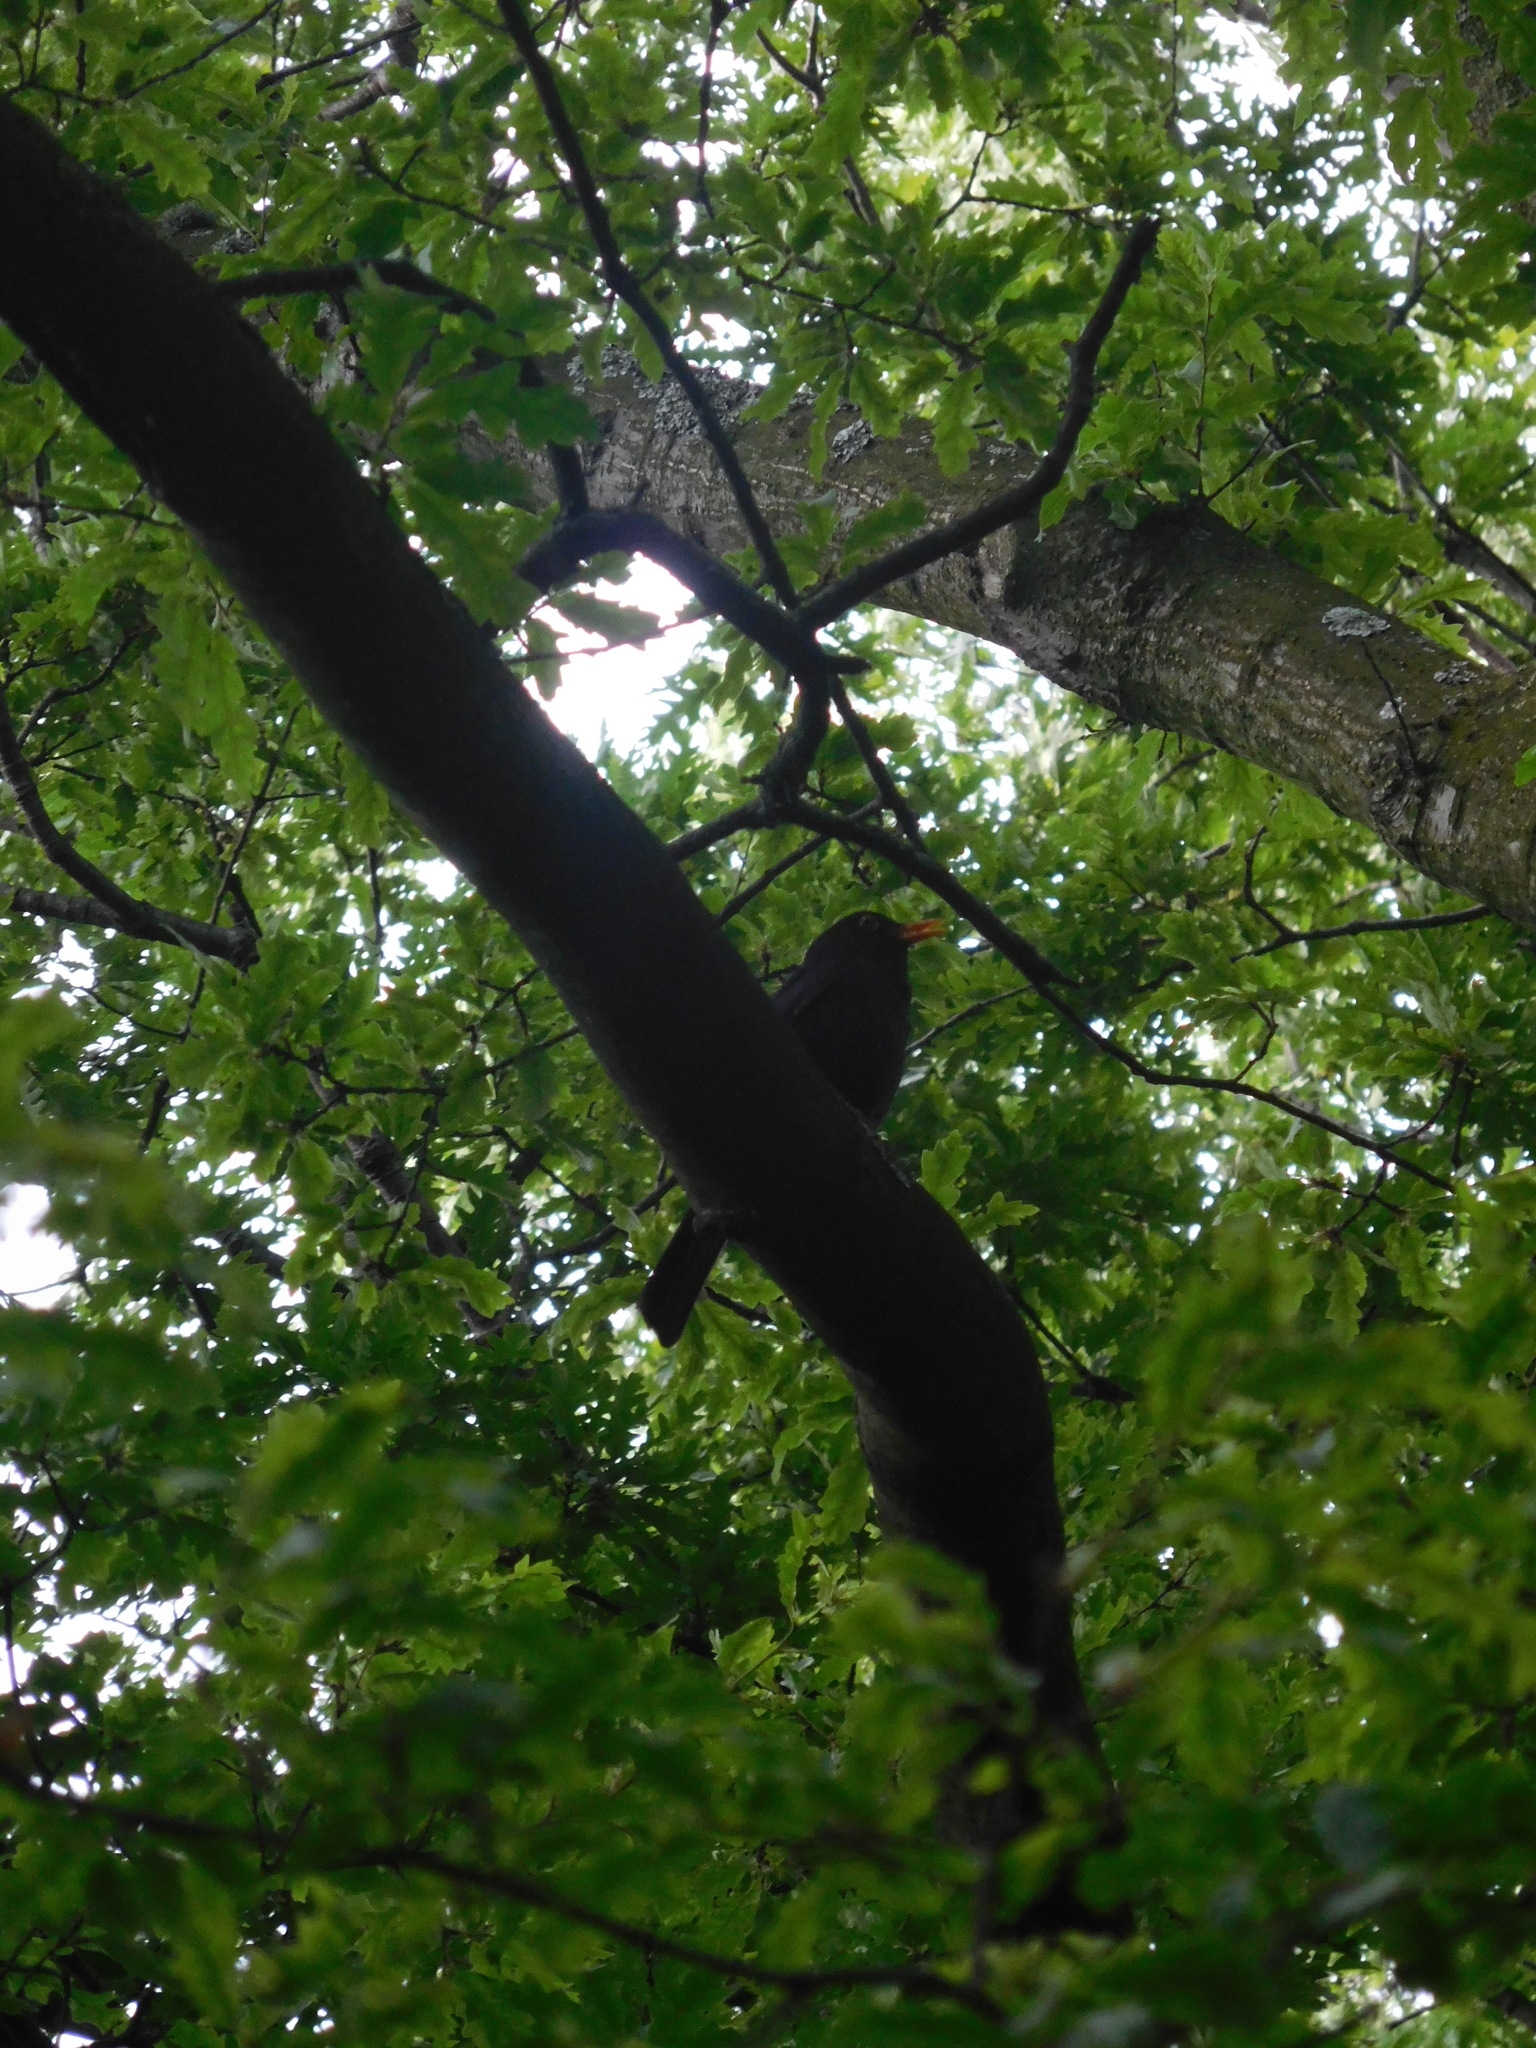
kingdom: Animalia
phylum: Chordata
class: Aves
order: Passeriformes
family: Turdidae
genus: Turdus
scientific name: Turdus merula
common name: Common blackbird
